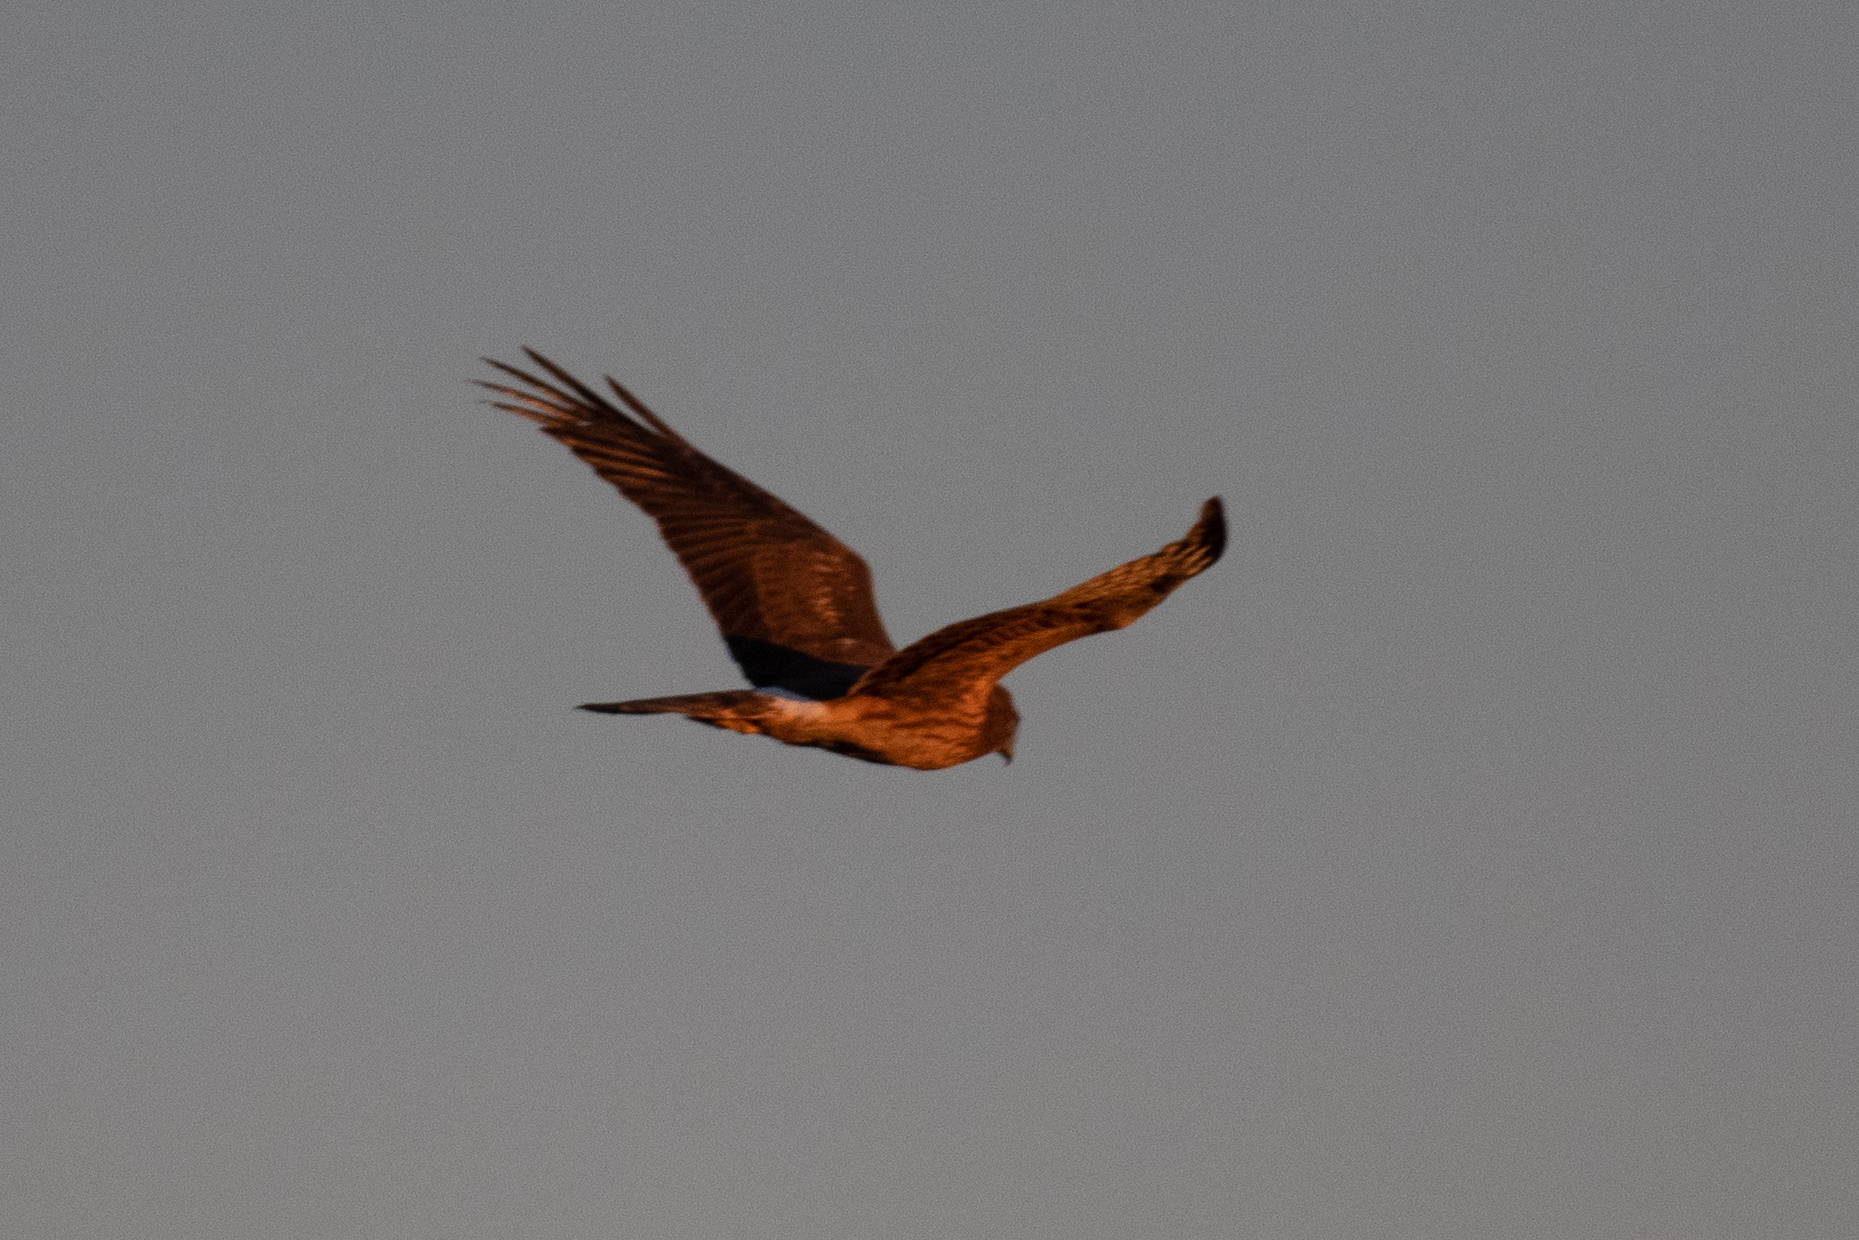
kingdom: Animalia
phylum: Chordata
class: Aves
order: Accipitriformes
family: Accipitridae
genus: Buteo
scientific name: Buteo jamaicensis
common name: Red-tailed hawk
